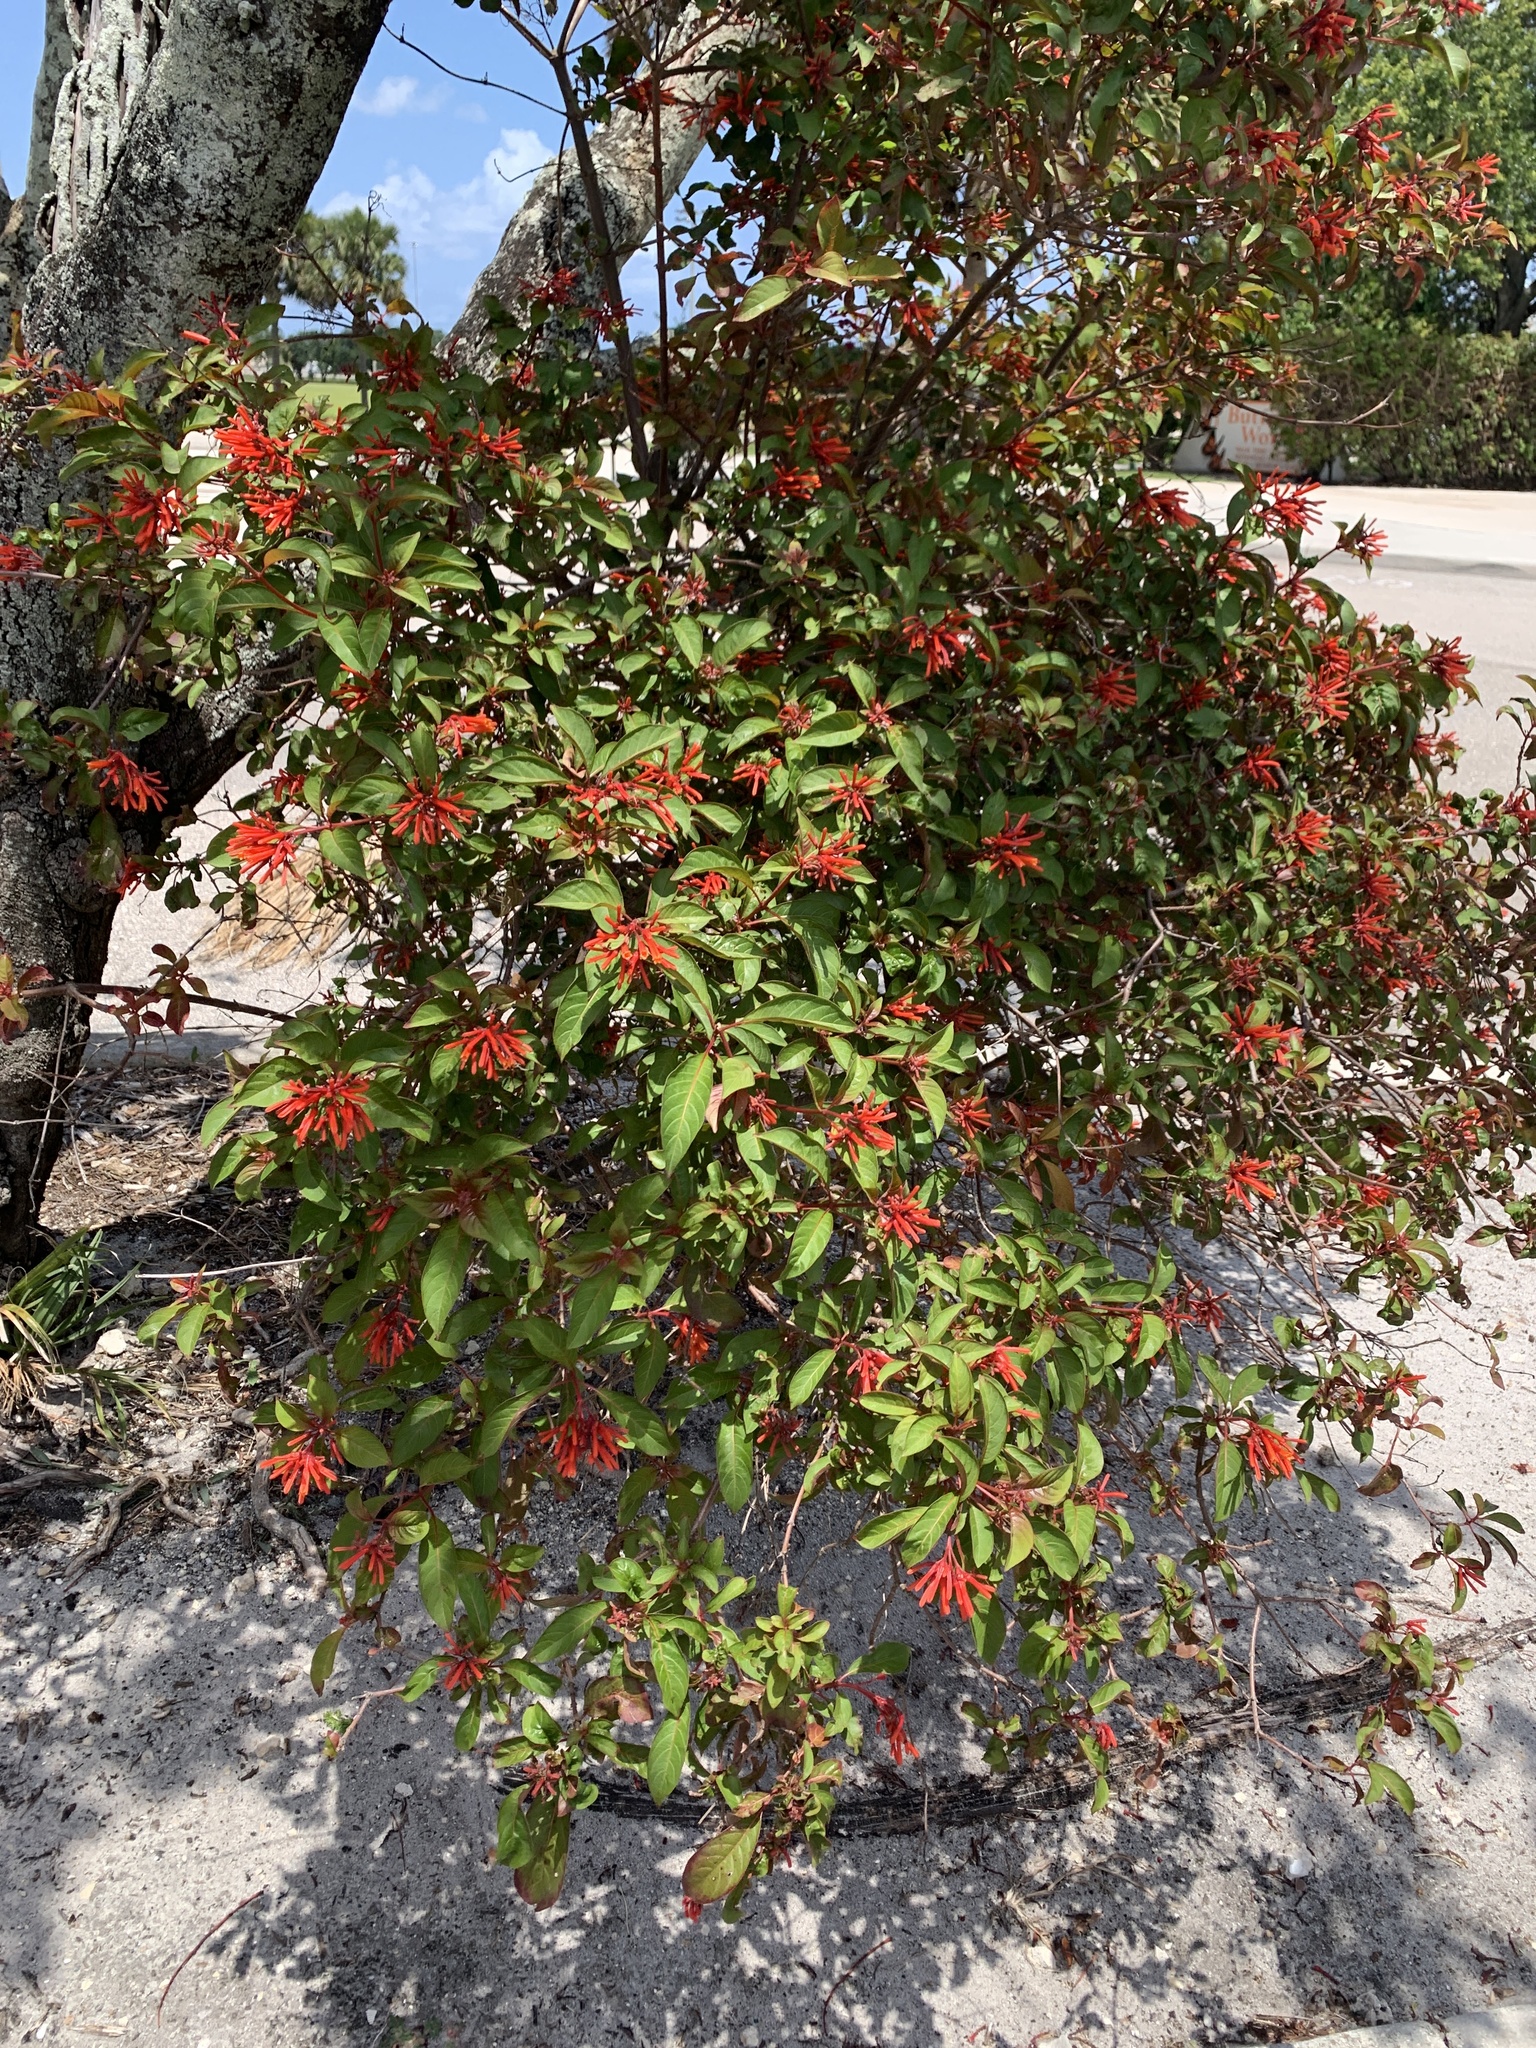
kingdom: Plantae
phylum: Tracheophyta
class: Magnoliopsida
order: Gentianales
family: Rubiaceae
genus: Hamelia
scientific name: Hamelia patens
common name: Redhead
